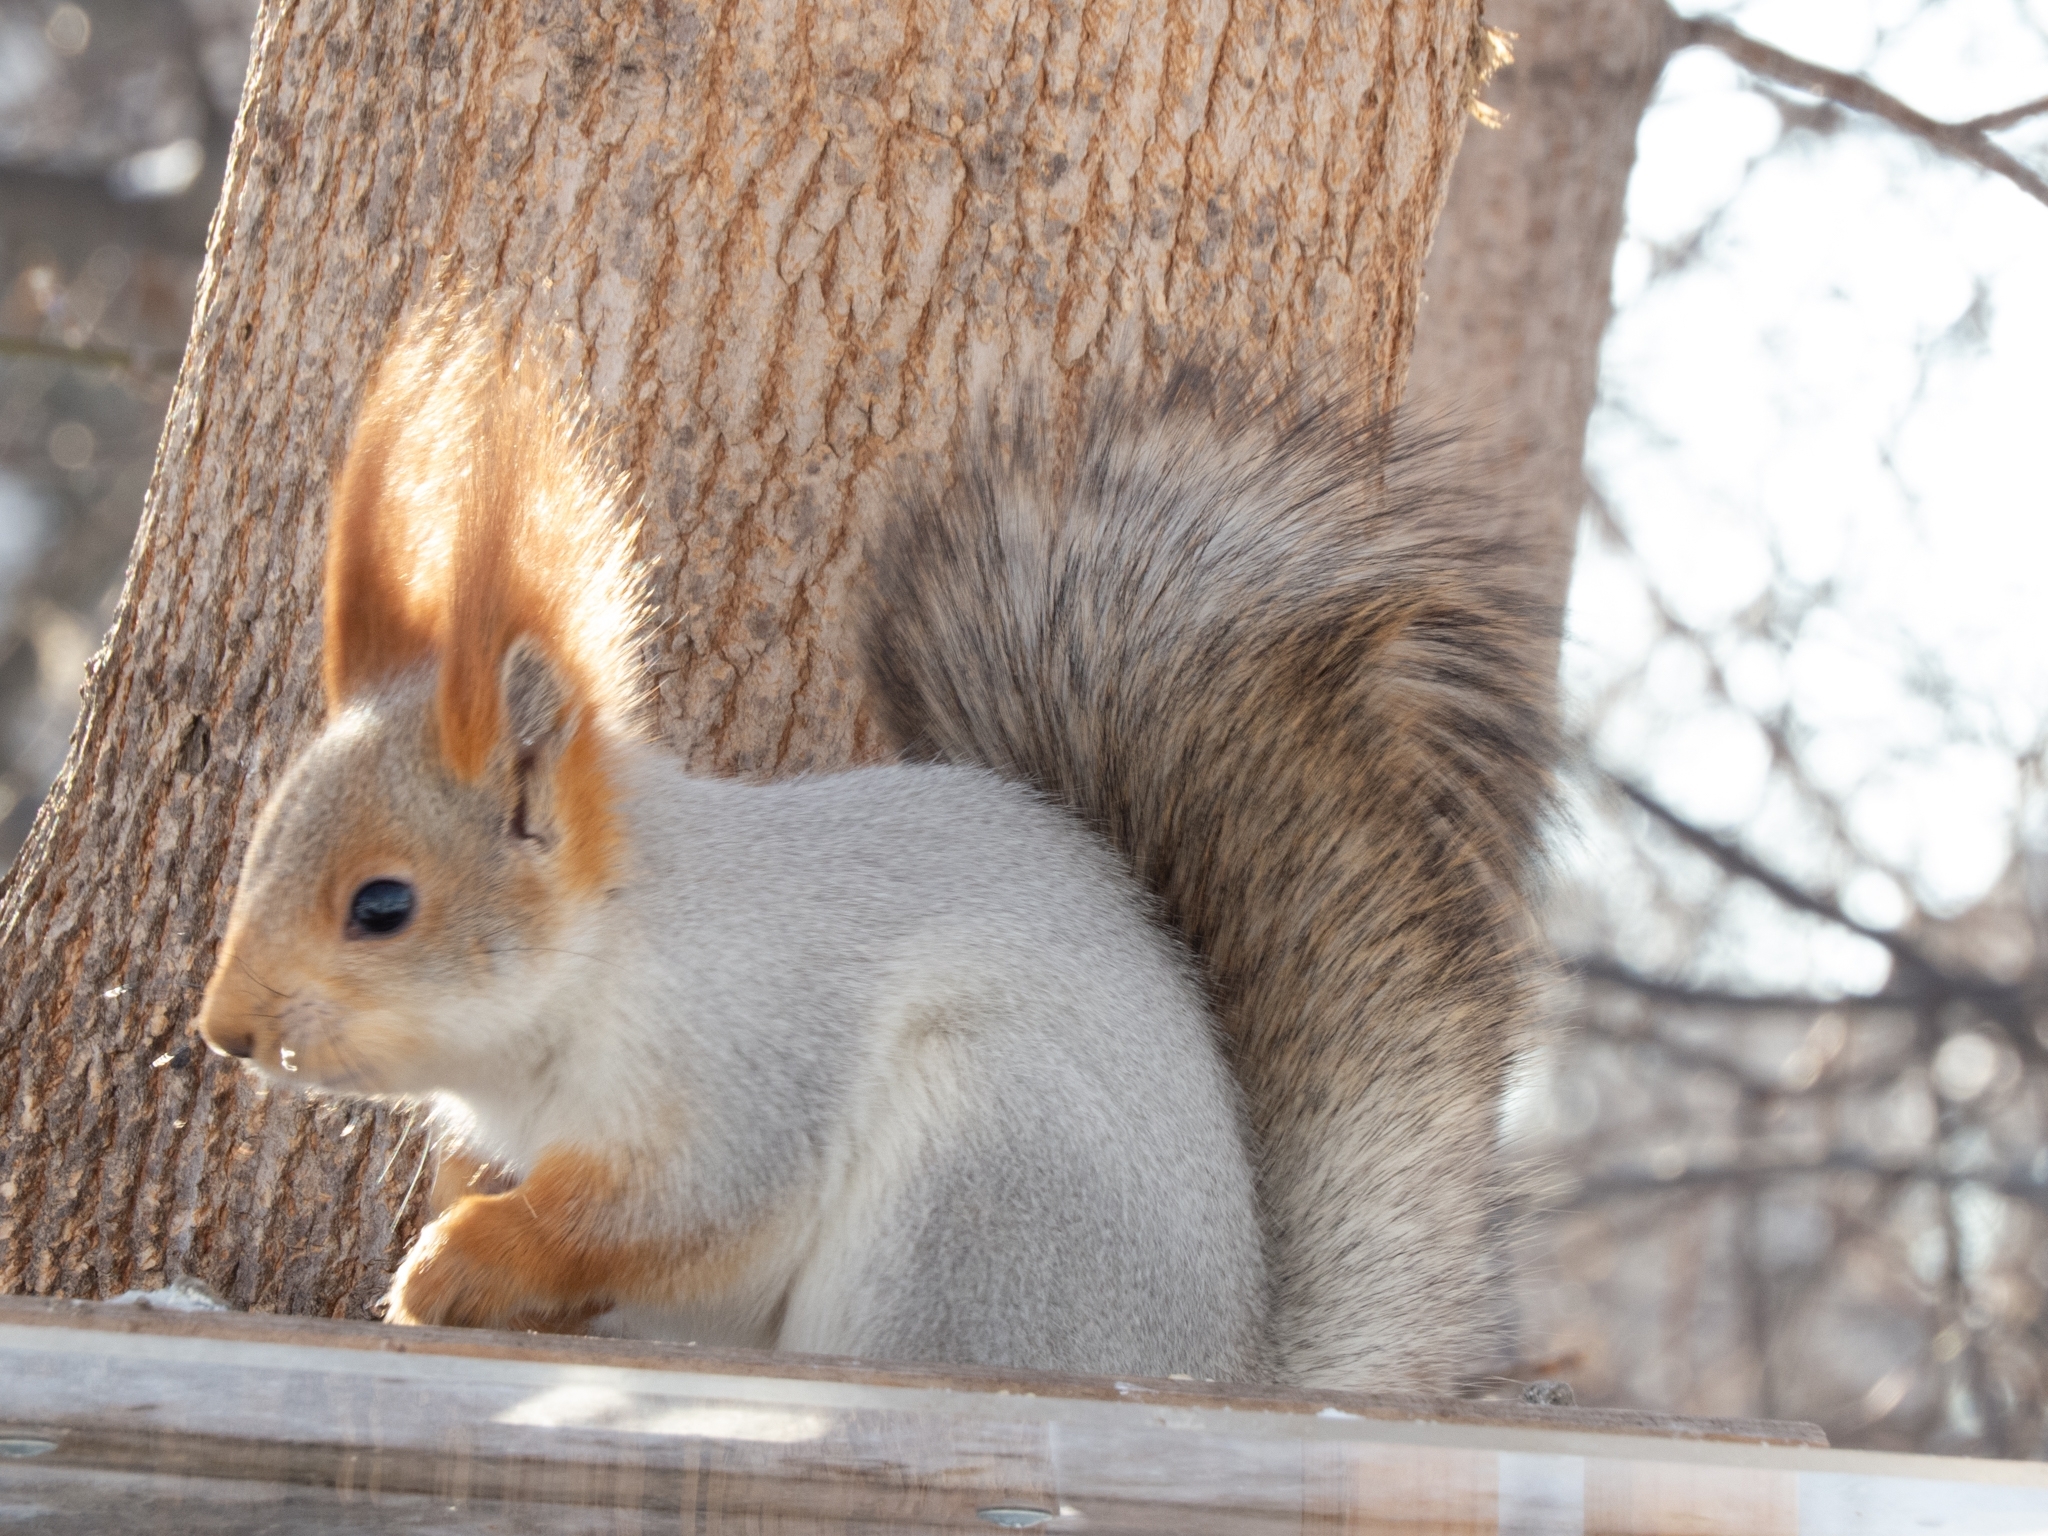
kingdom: Animalia
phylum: Chordata
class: Mammalia
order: Rodentia
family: Sciuridae
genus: Sciurus
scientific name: Sciurus vulgaris
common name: Eurasian red squirrel
